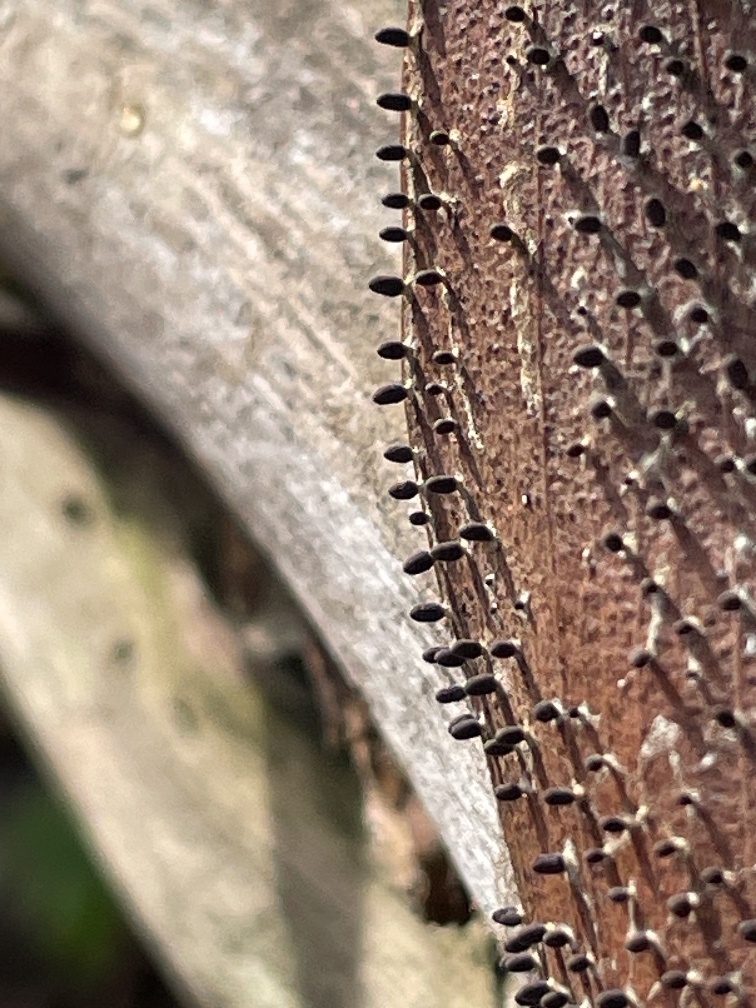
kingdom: Protozoa
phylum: Mycetozoa
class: Myxomycetes
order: Physarales
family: Didymiaceae
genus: Diachea
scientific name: Diachea leucopodia
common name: White-footed slime
